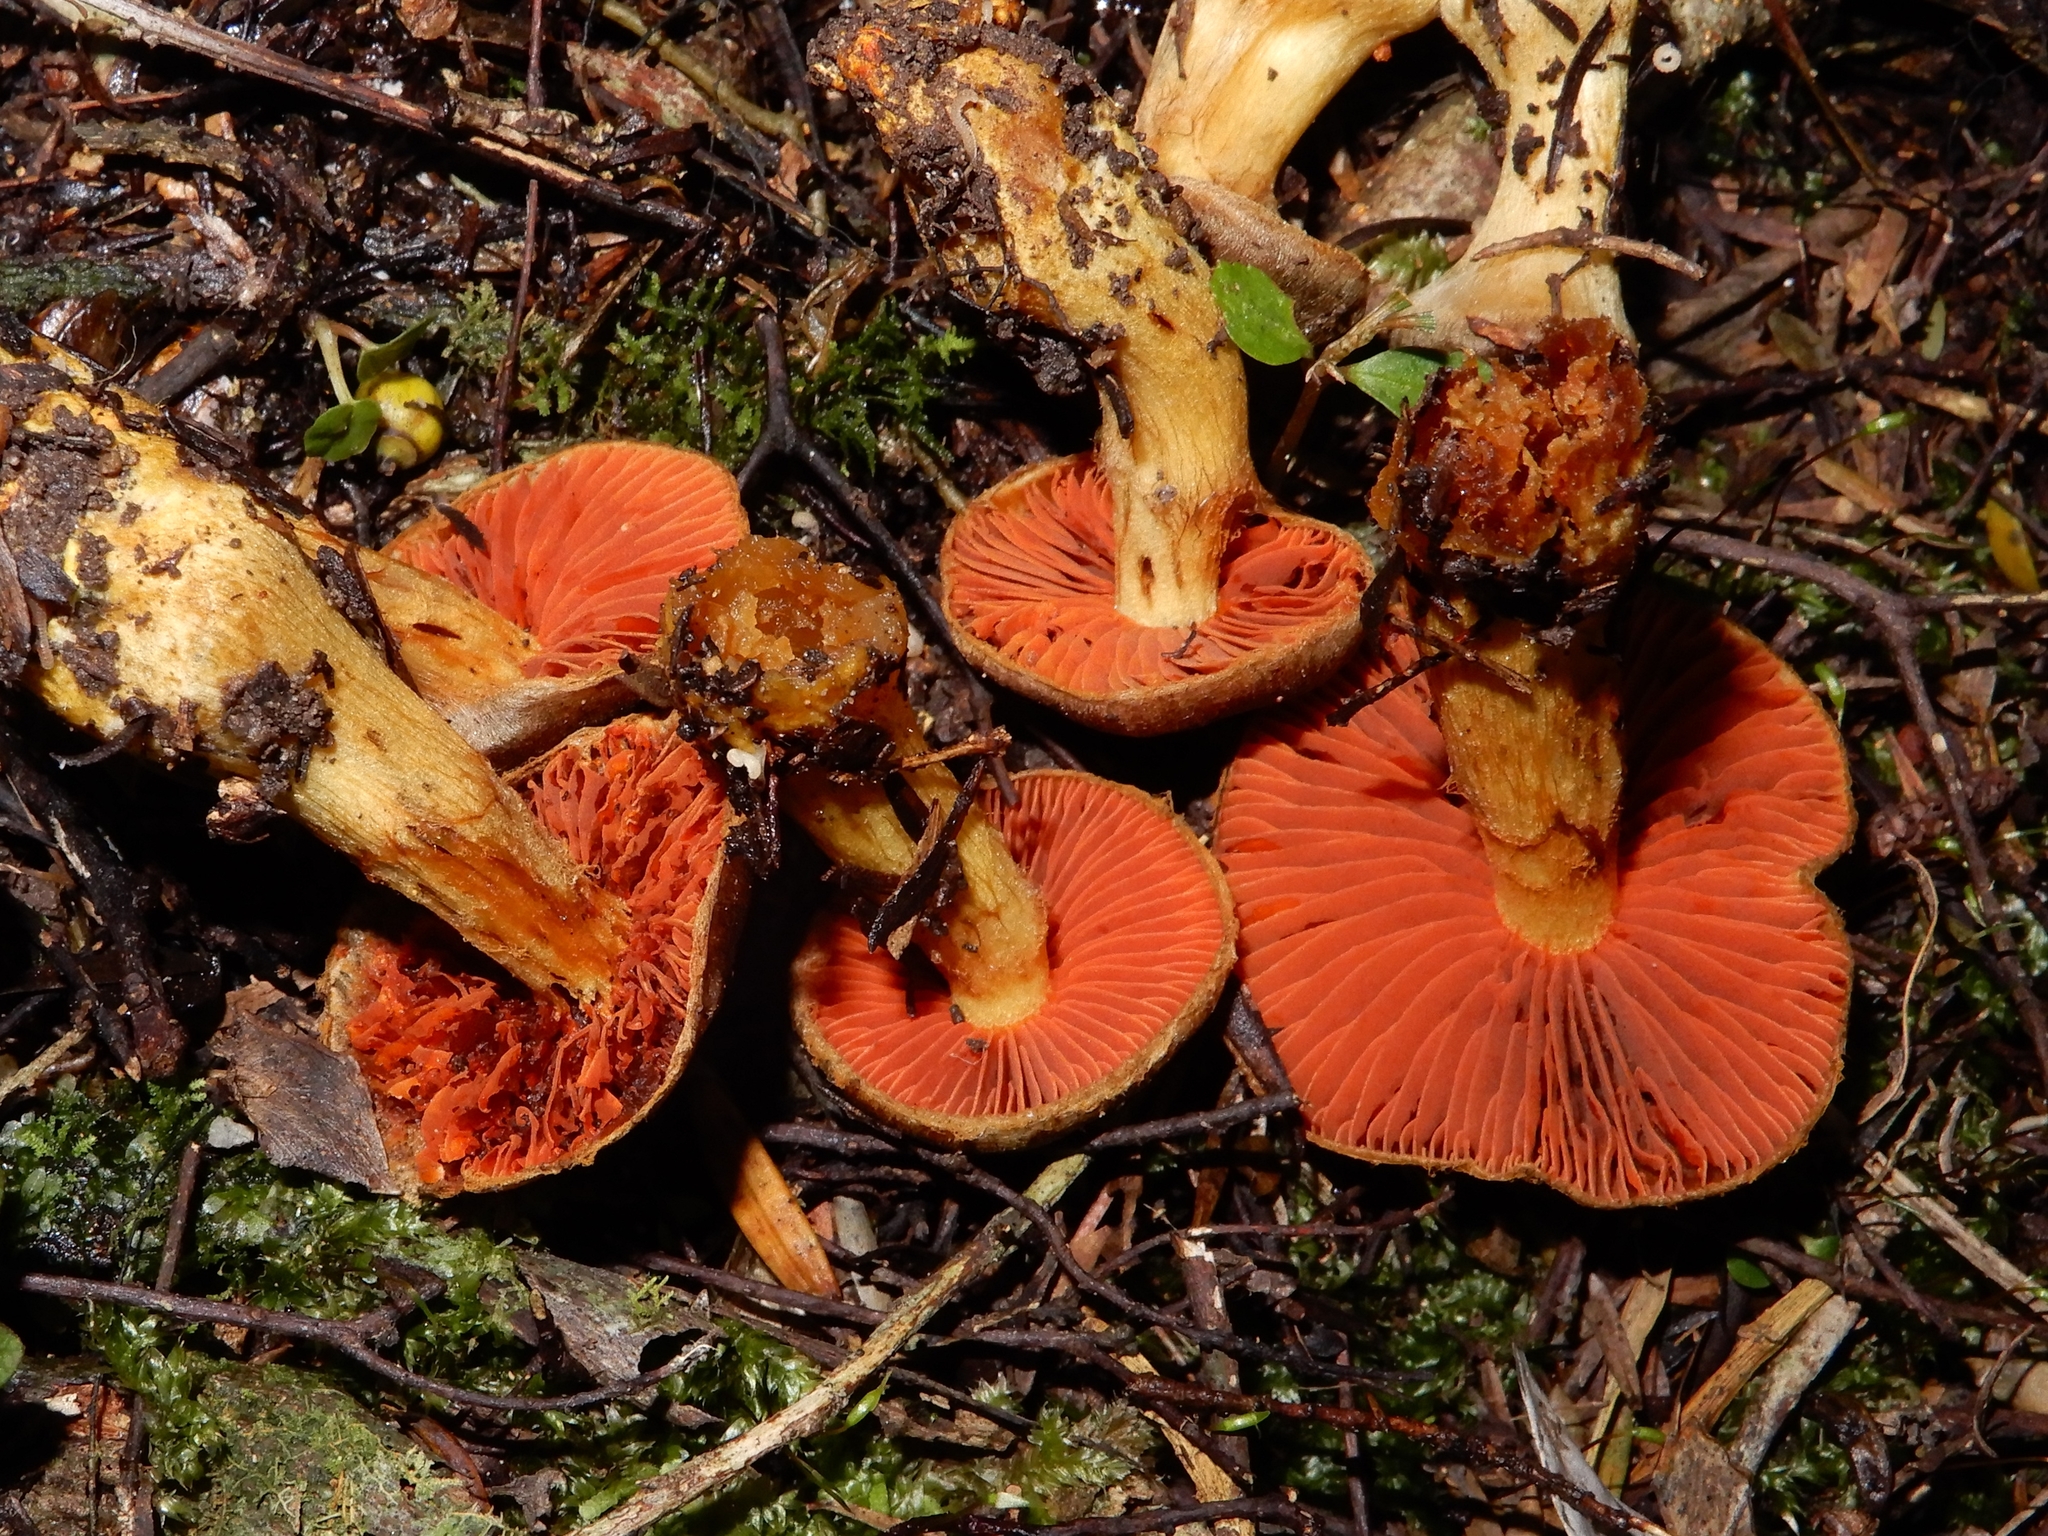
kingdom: Fungi
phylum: Basidiomycota
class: Agaricomycetes
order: Agaricales
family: Cortinariaceae
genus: Cortinarius
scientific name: Cortinarius persplendidus
